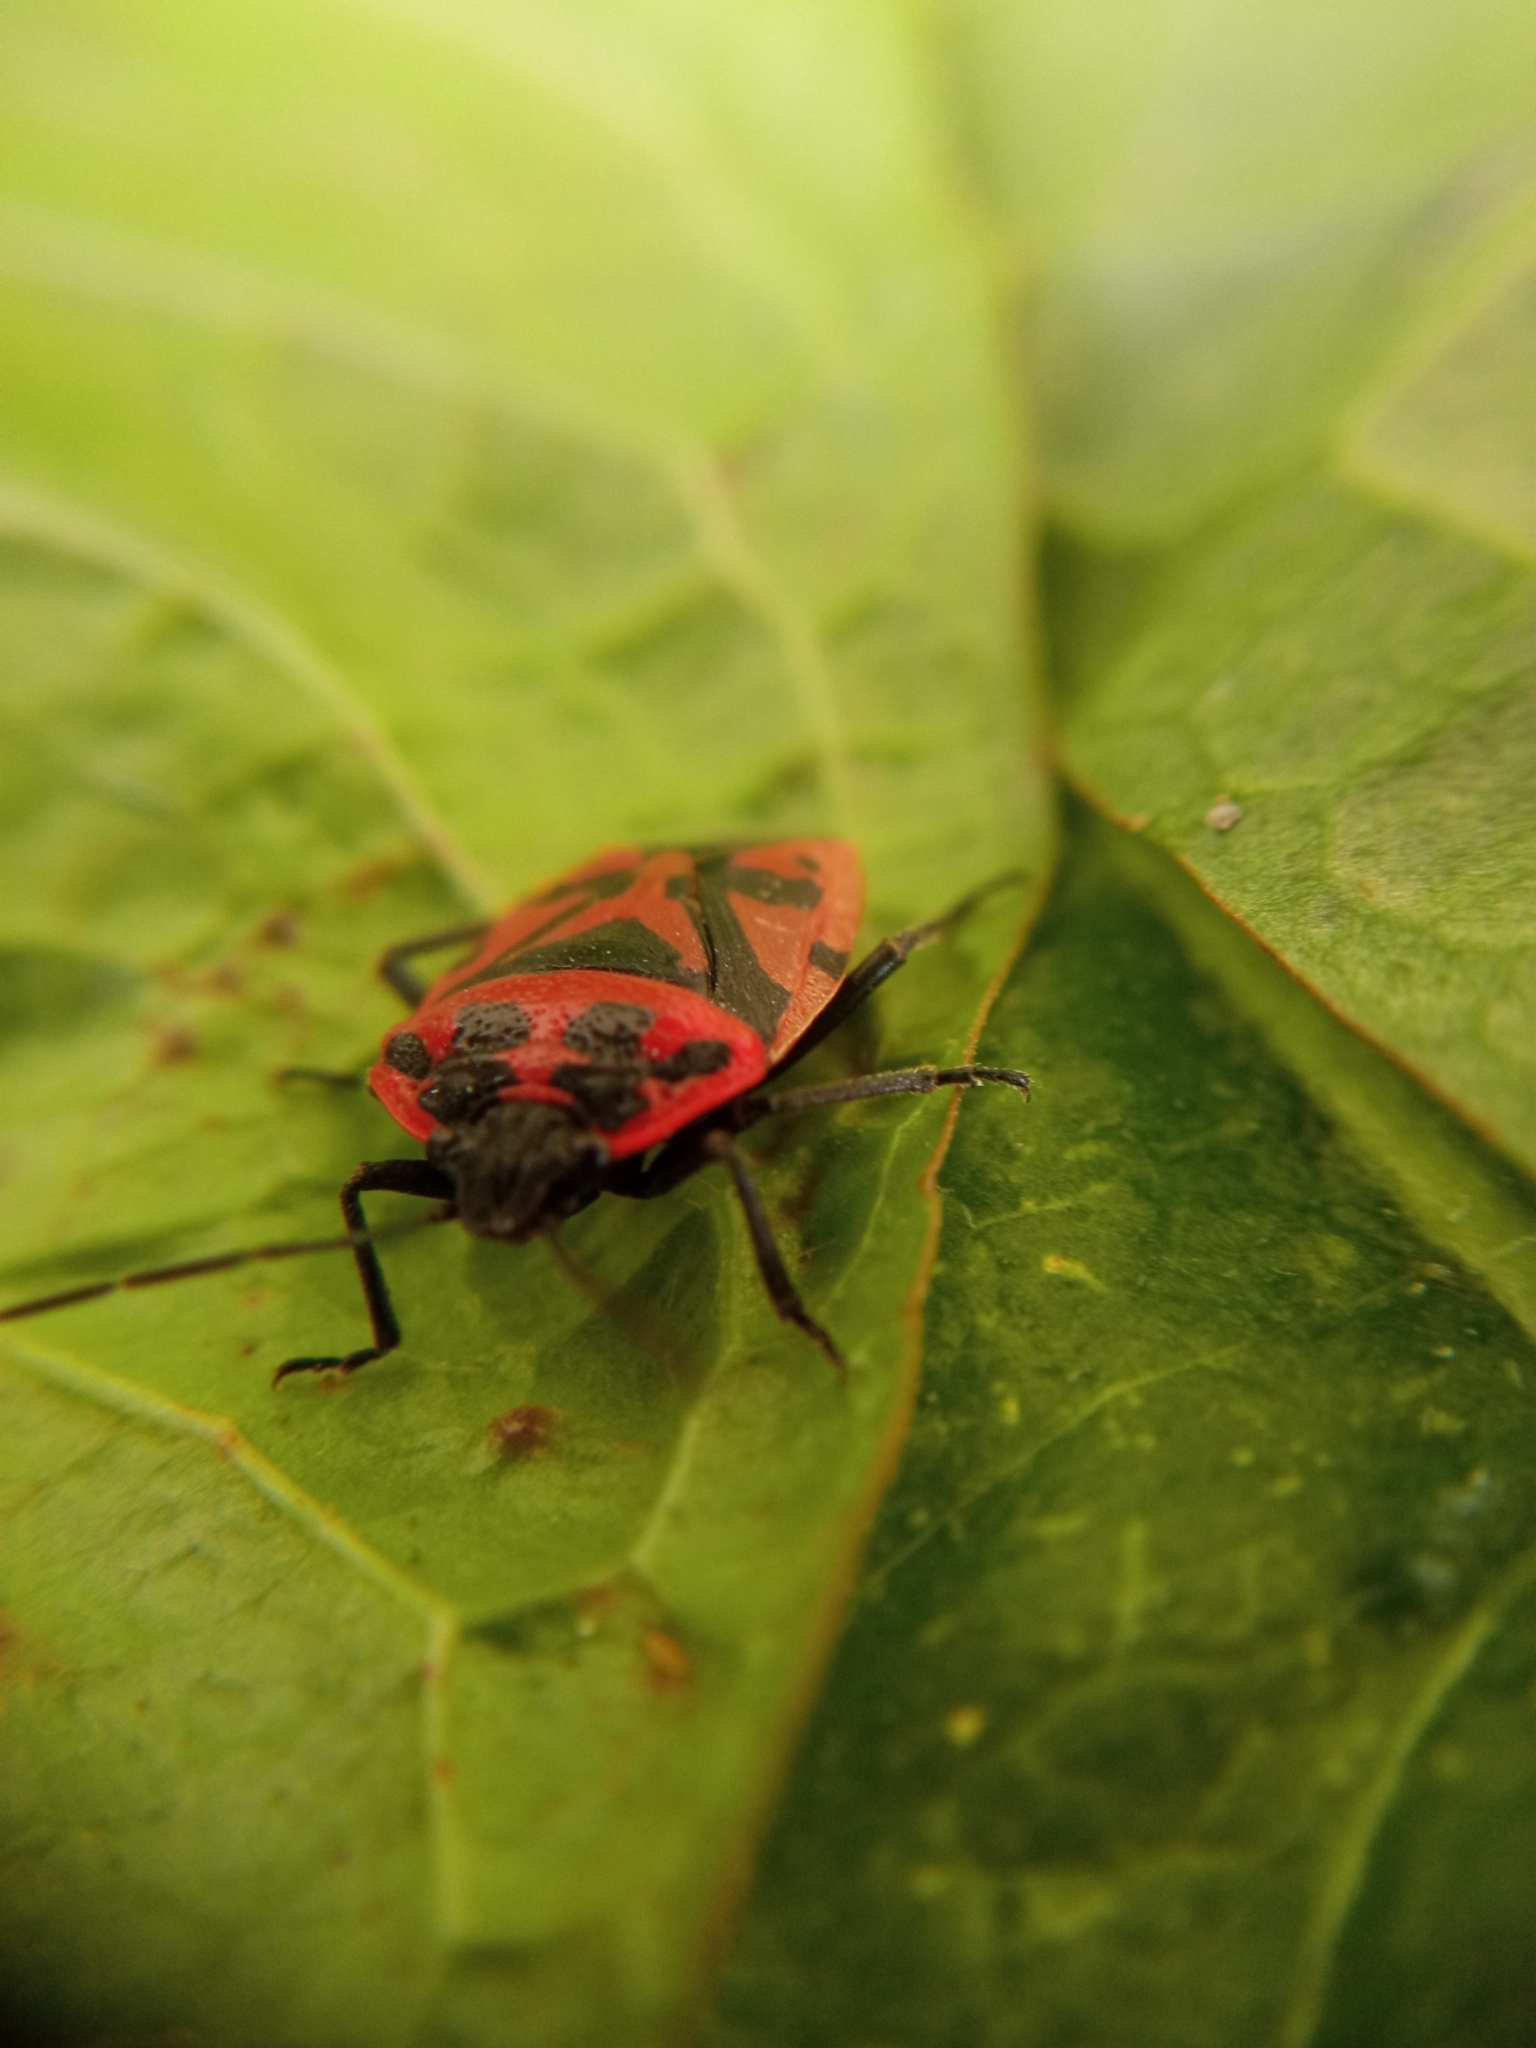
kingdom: Animalia
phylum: Arthropoda
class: Insecta
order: Hemiptera
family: Pentatomidae
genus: Eurydema
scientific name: Eurydema ventralis
